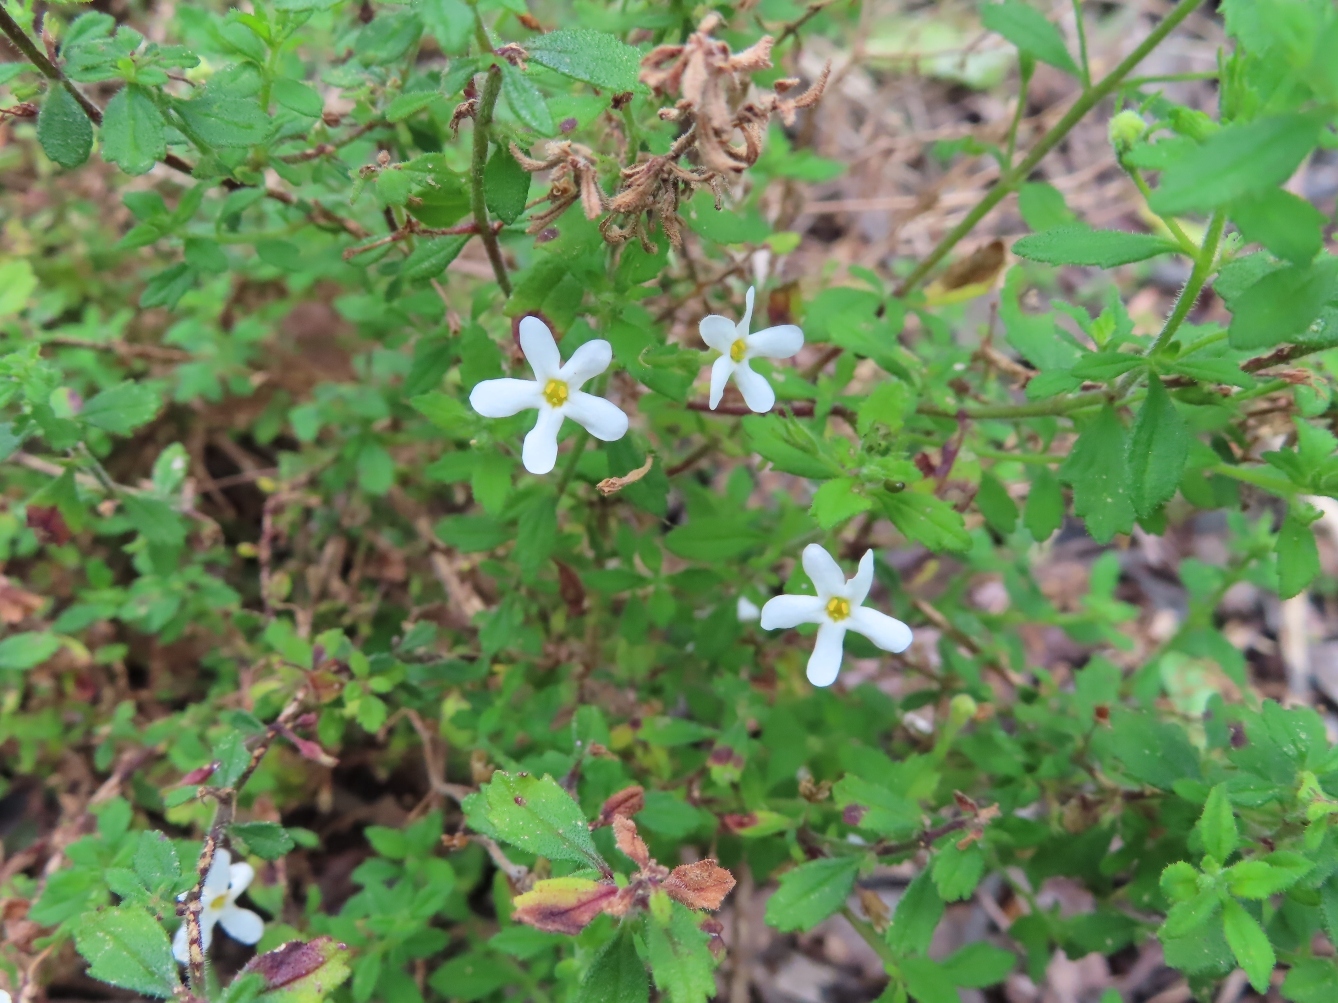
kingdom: Plantae
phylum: Tracheophyta
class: Magnoliopsida
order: Lamiales
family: Scrophulariaceae
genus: Chaenostoma
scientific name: Chaenostoma hispidum
